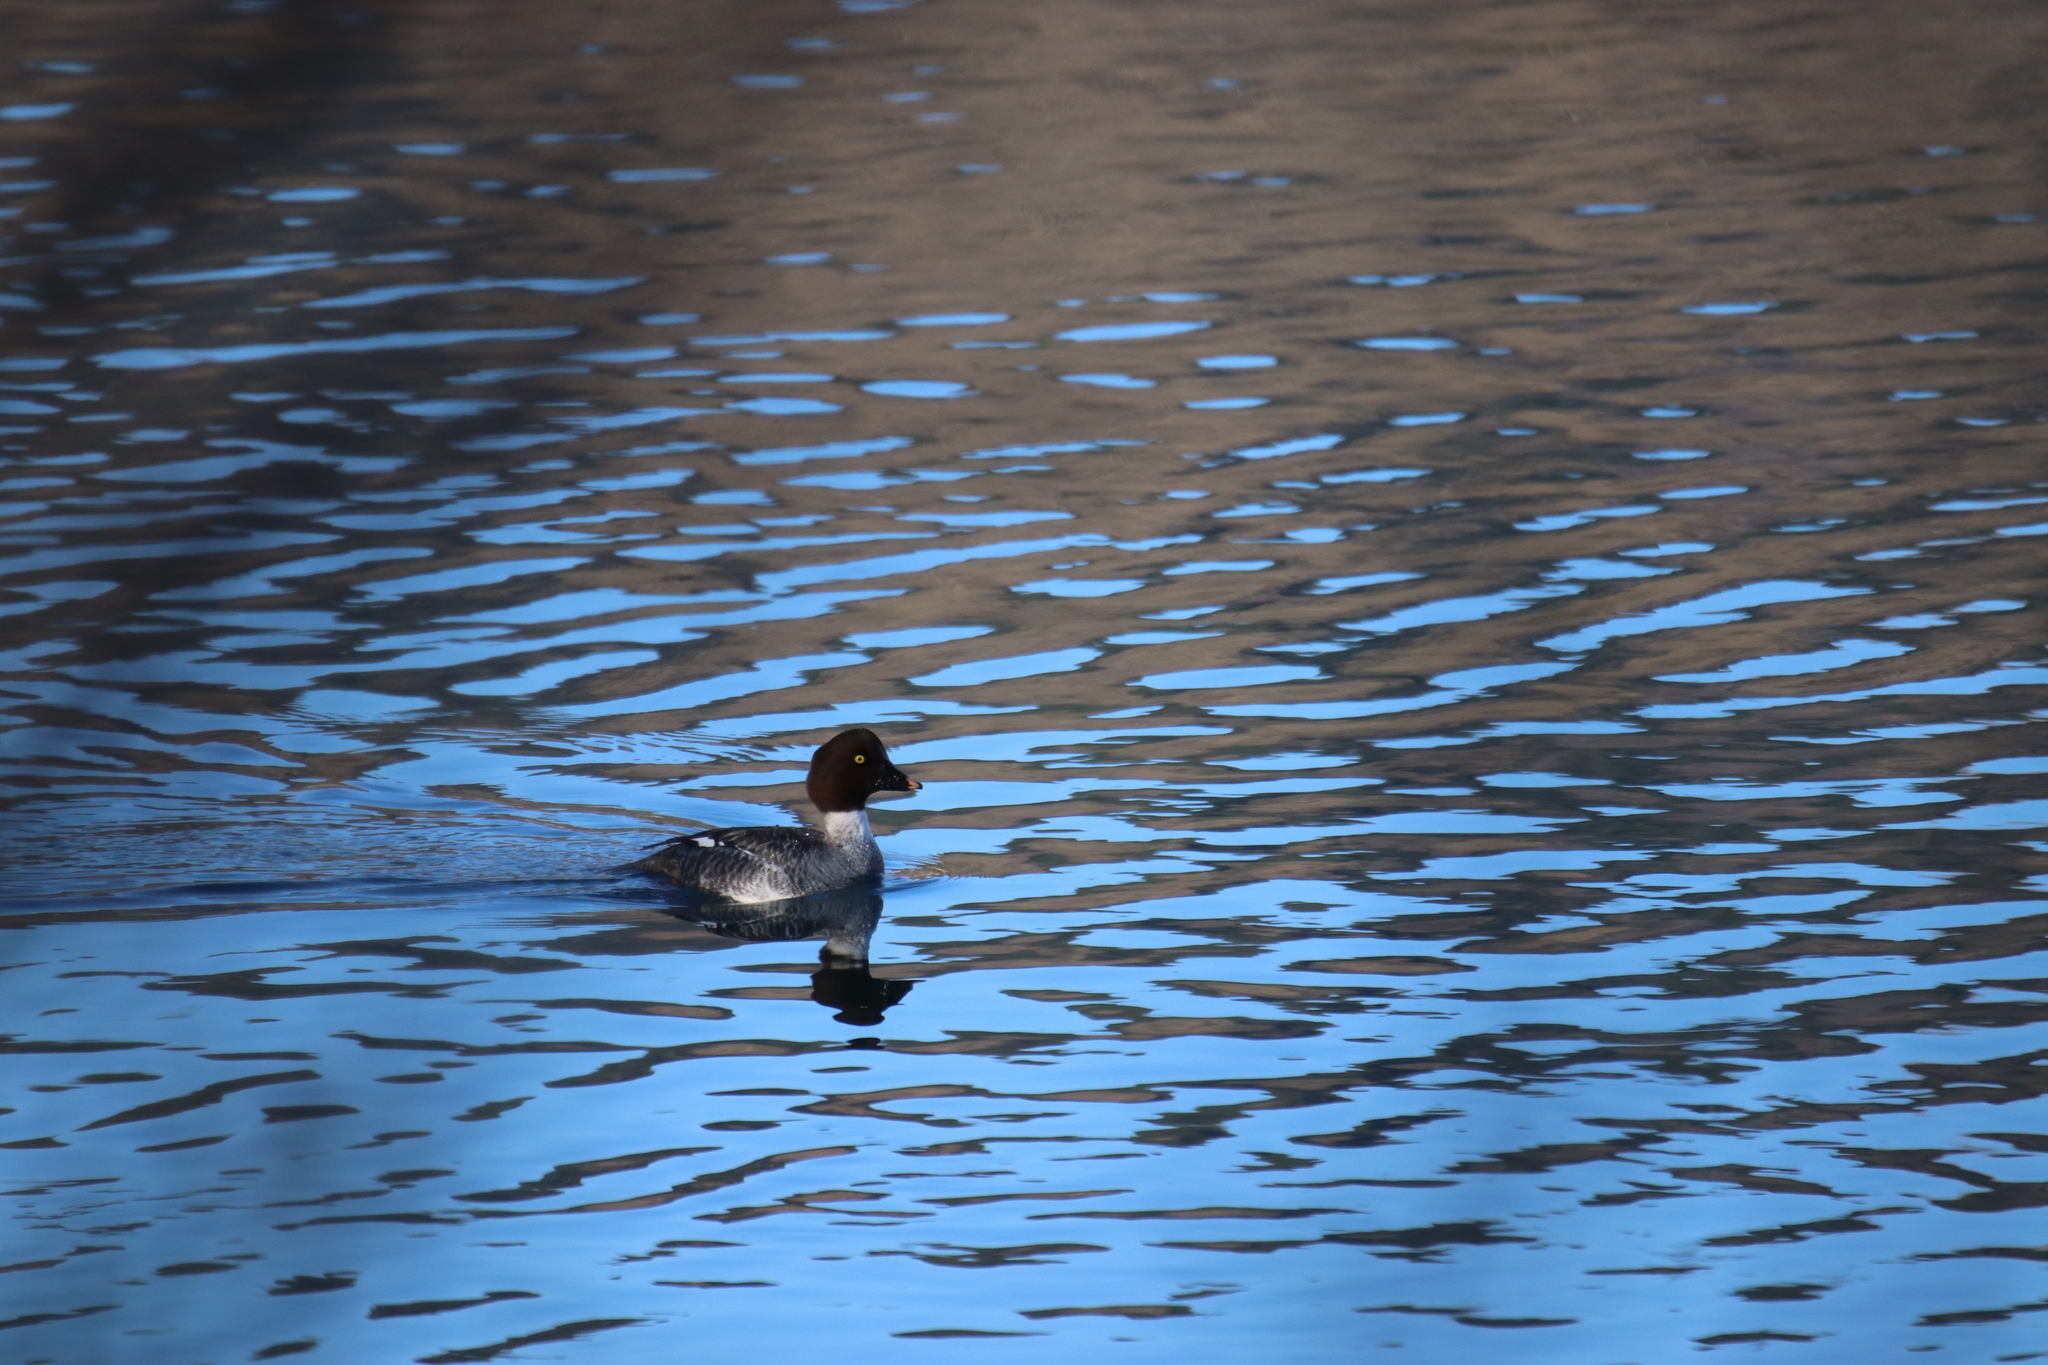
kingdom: Animalia
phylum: Chordata
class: Aves
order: Anseriformes
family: Anatidae
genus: Bucephala
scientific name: Bucephala clangula
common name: Common goldeneye
